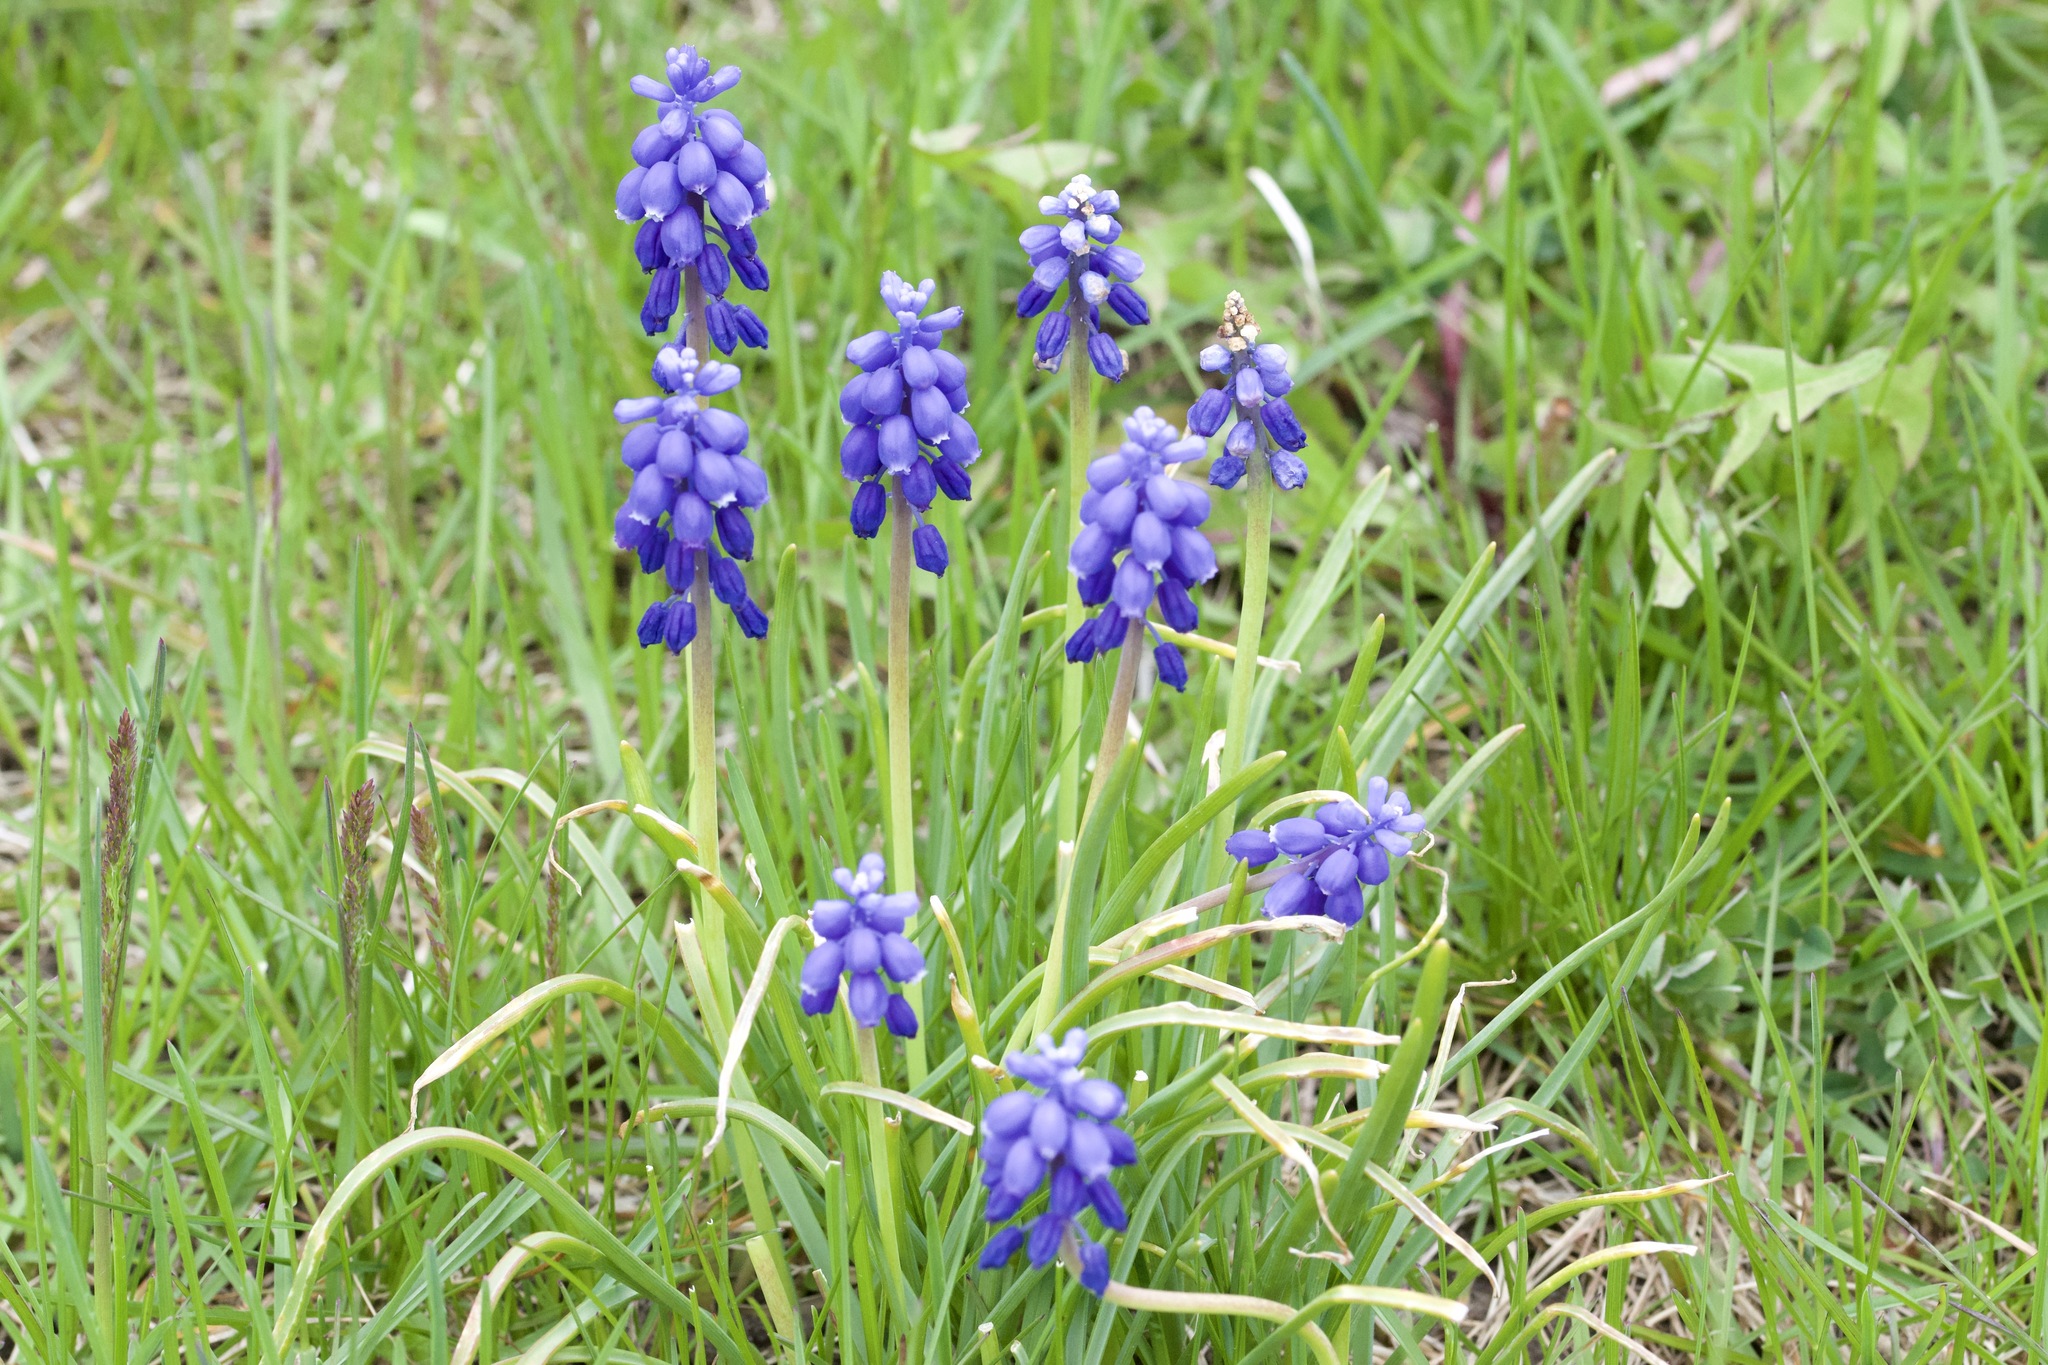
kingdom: Plantae
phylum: Tracheophyta
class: Liliopsida
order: Asparagales
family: Asparagaceae
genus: Muscari
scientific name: Muscari neglectum
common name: Grape-hyacinth
